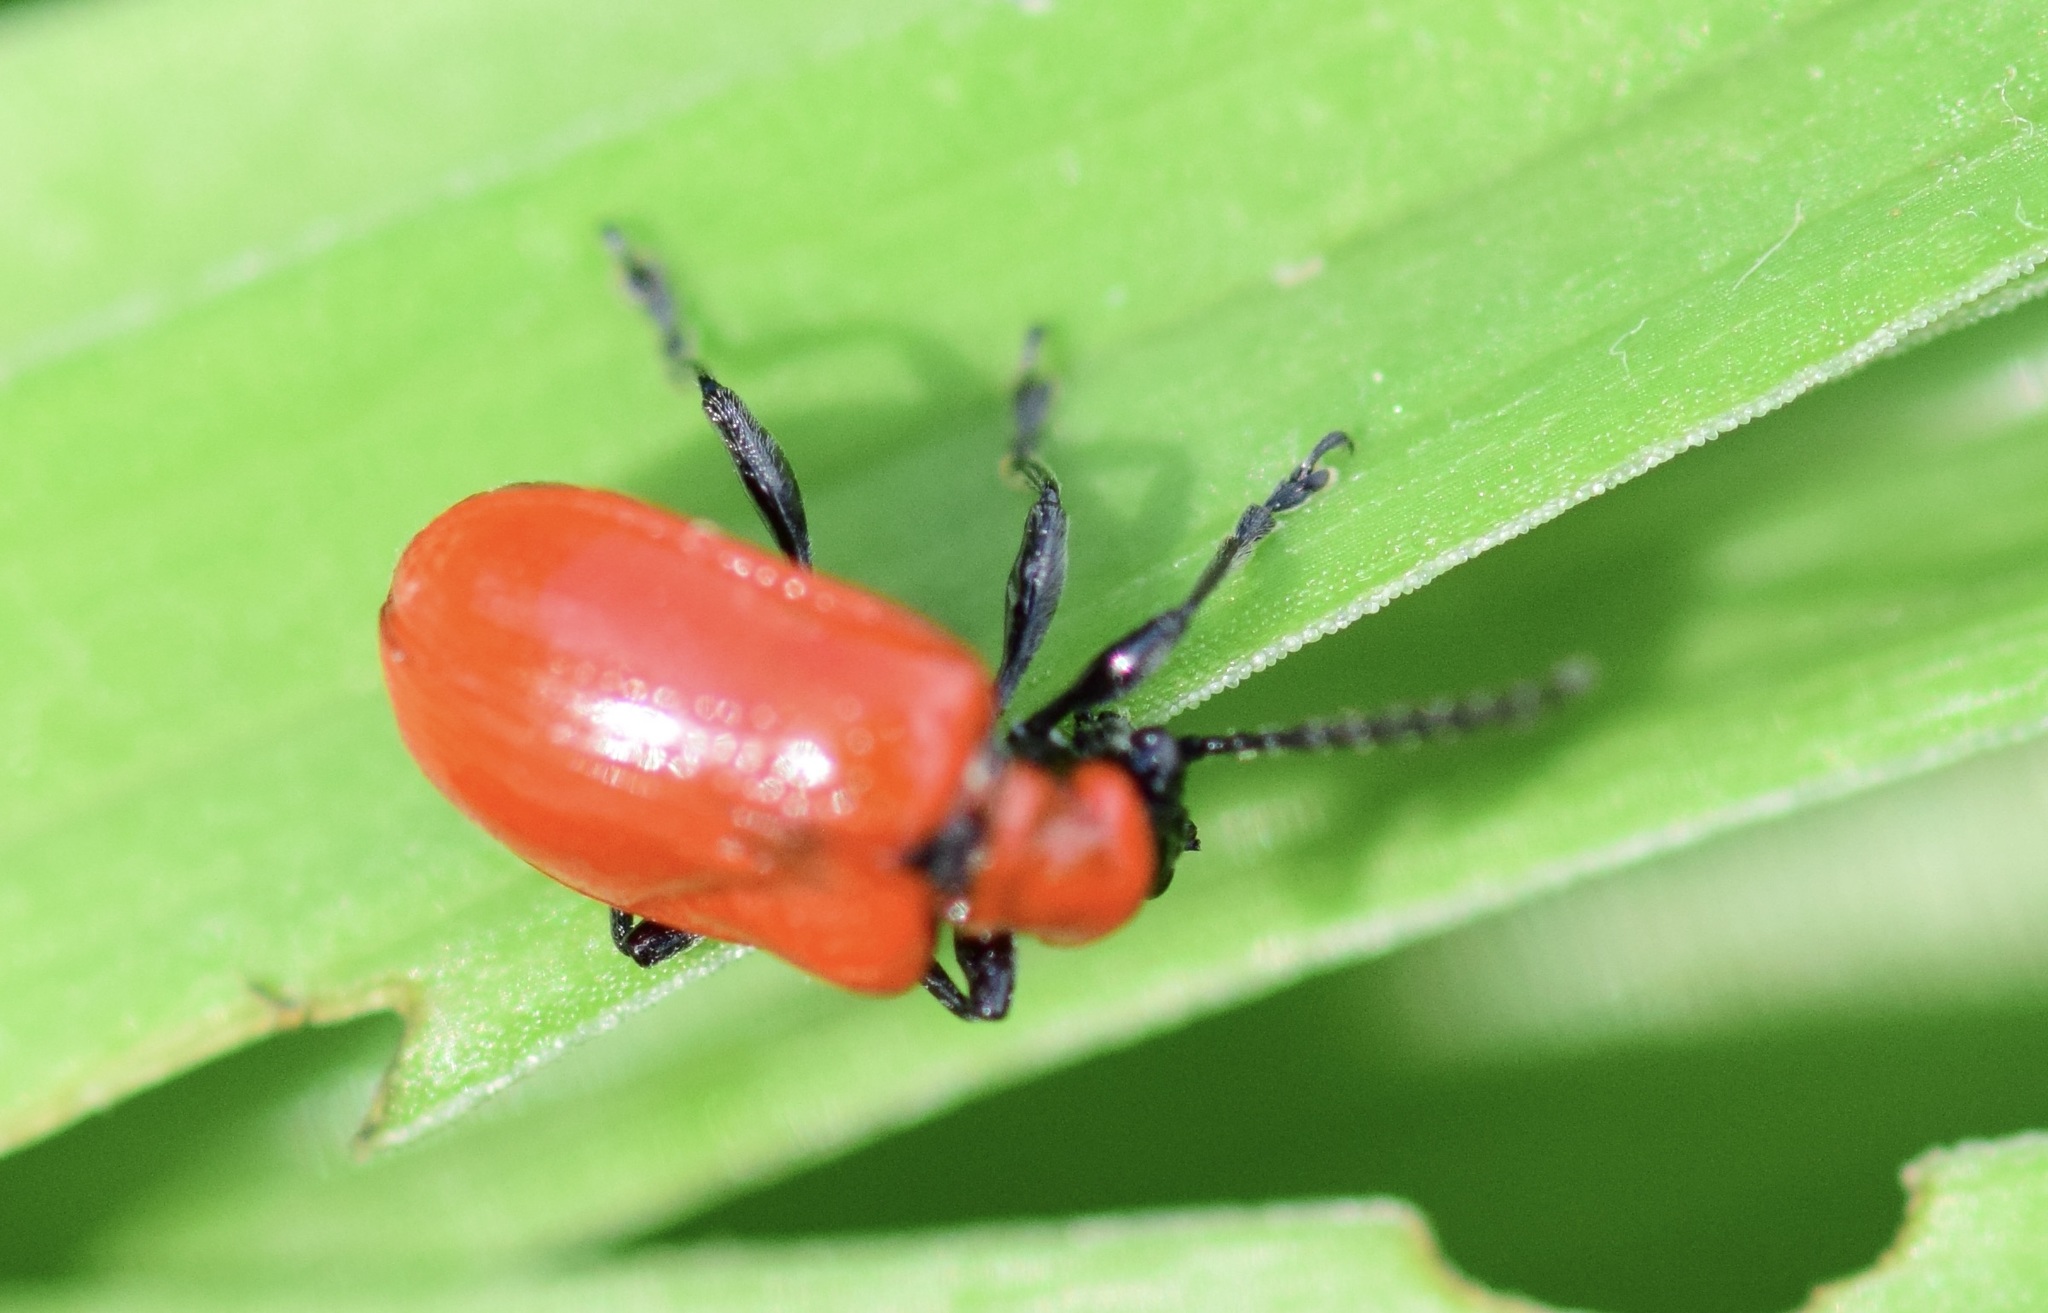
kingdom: Animalia
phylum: Arthropoda
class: Insecta
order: Coleoptera
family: Chrysomelidae
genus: Lilioceris
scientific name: Lilioceris lilii
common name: Lily beetle
